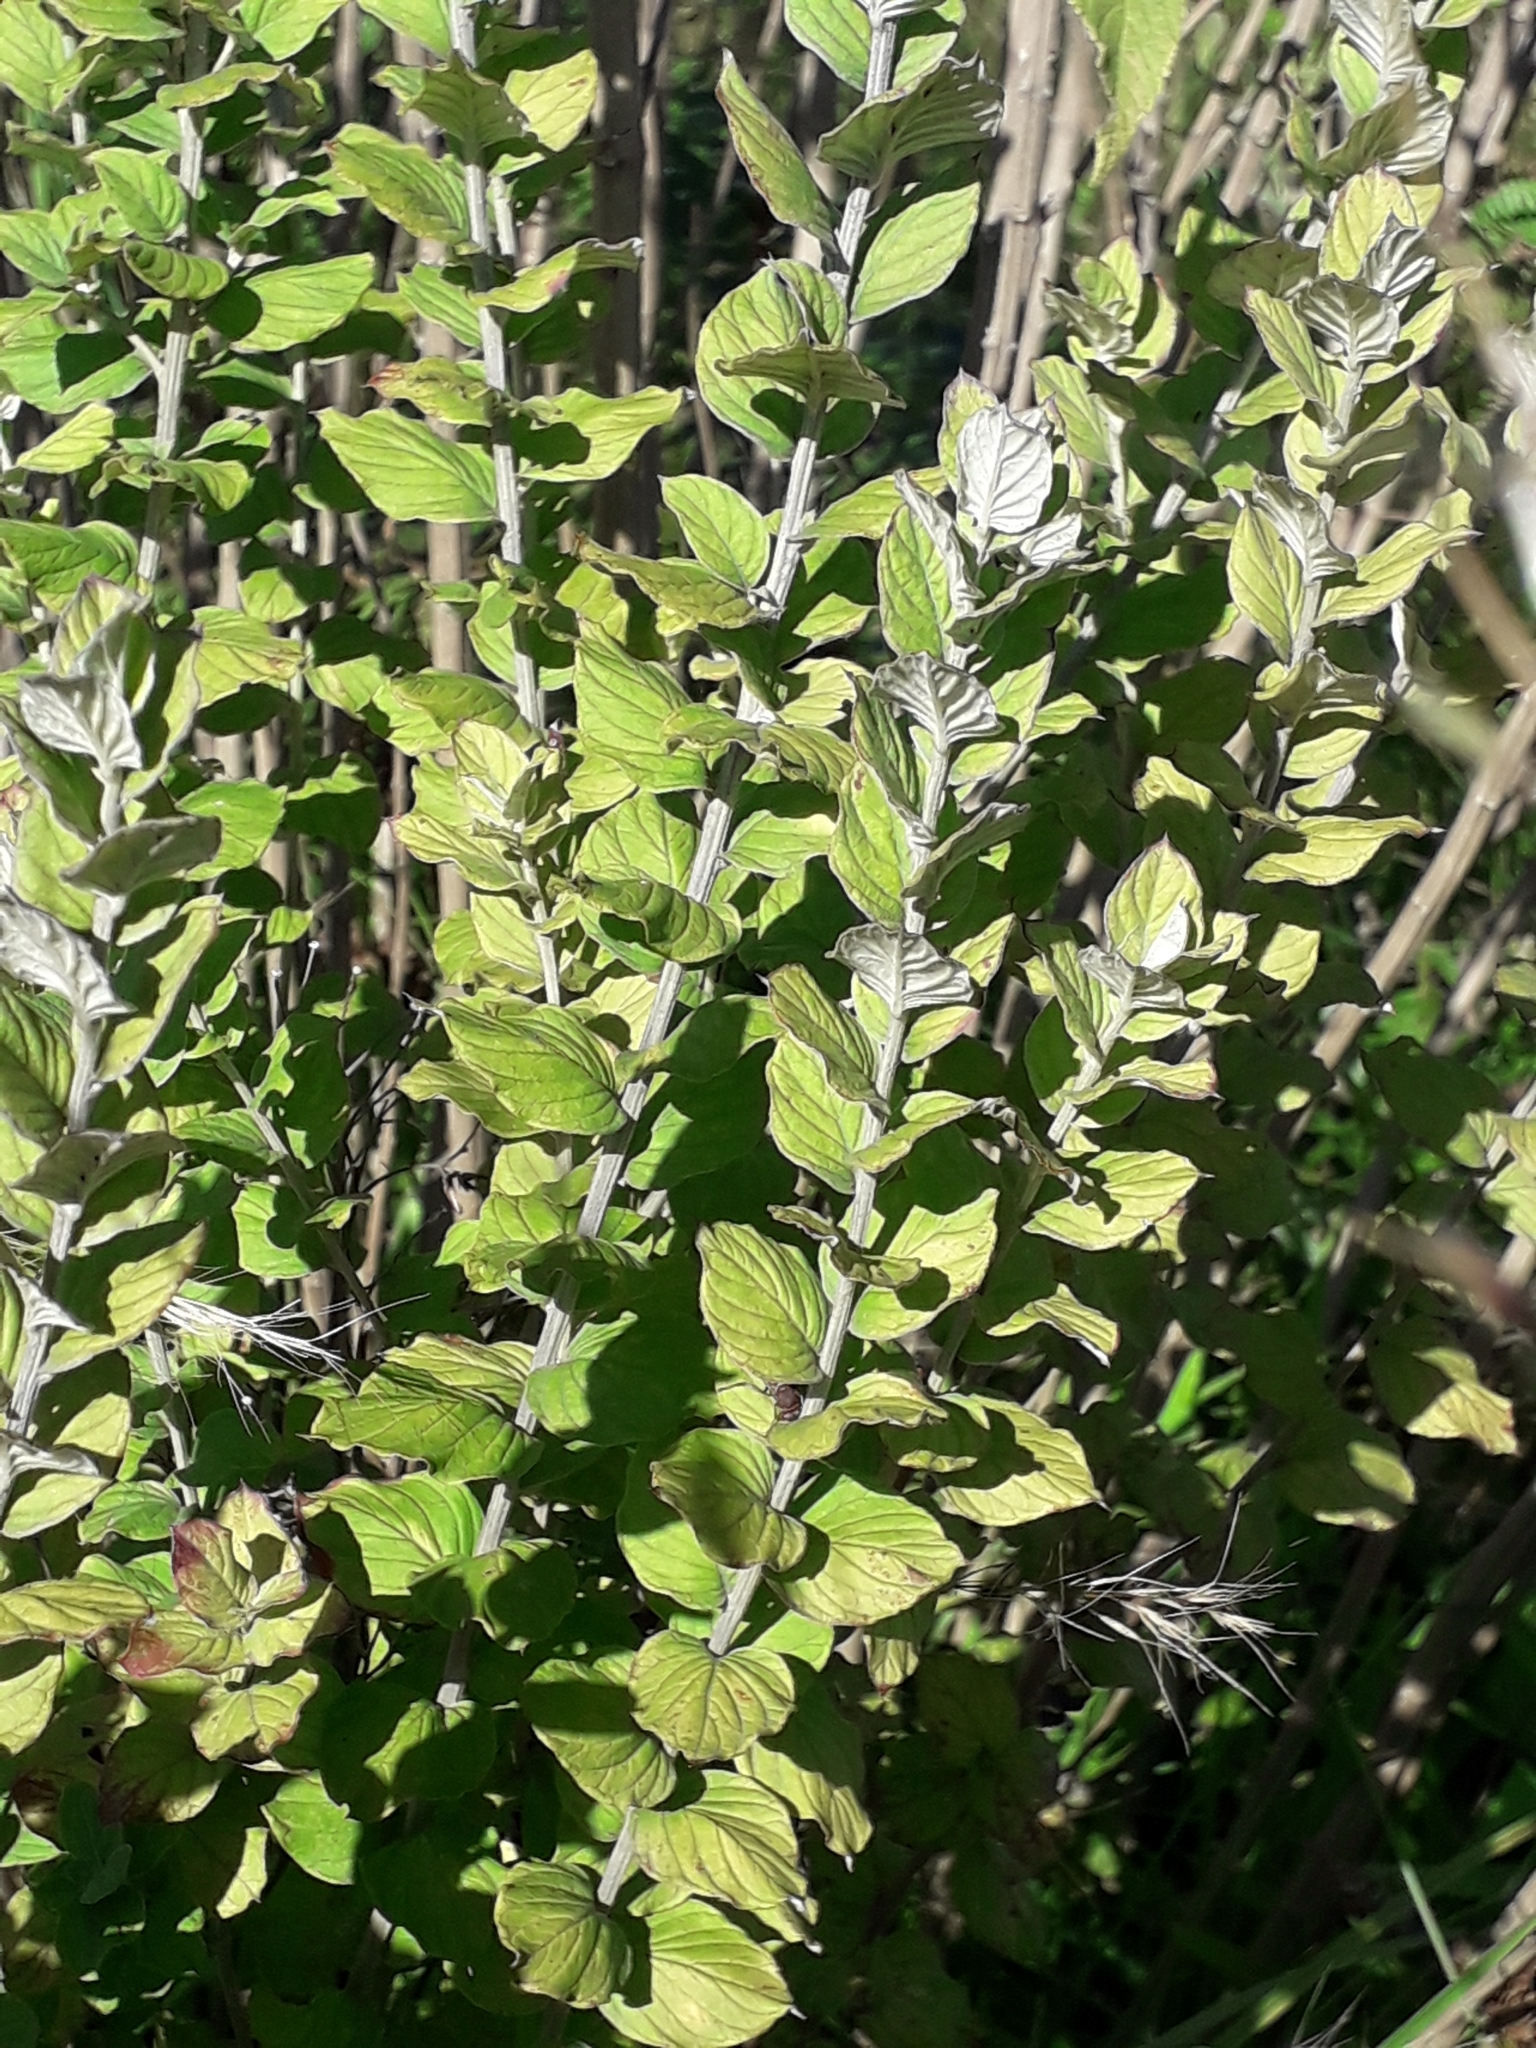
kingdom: Plantae
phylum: Tracheophyta
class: Magnoliopsida
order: Asterales
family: Asteraceae
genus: Hilliardiella
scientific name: Hilliardiella oligocephala
